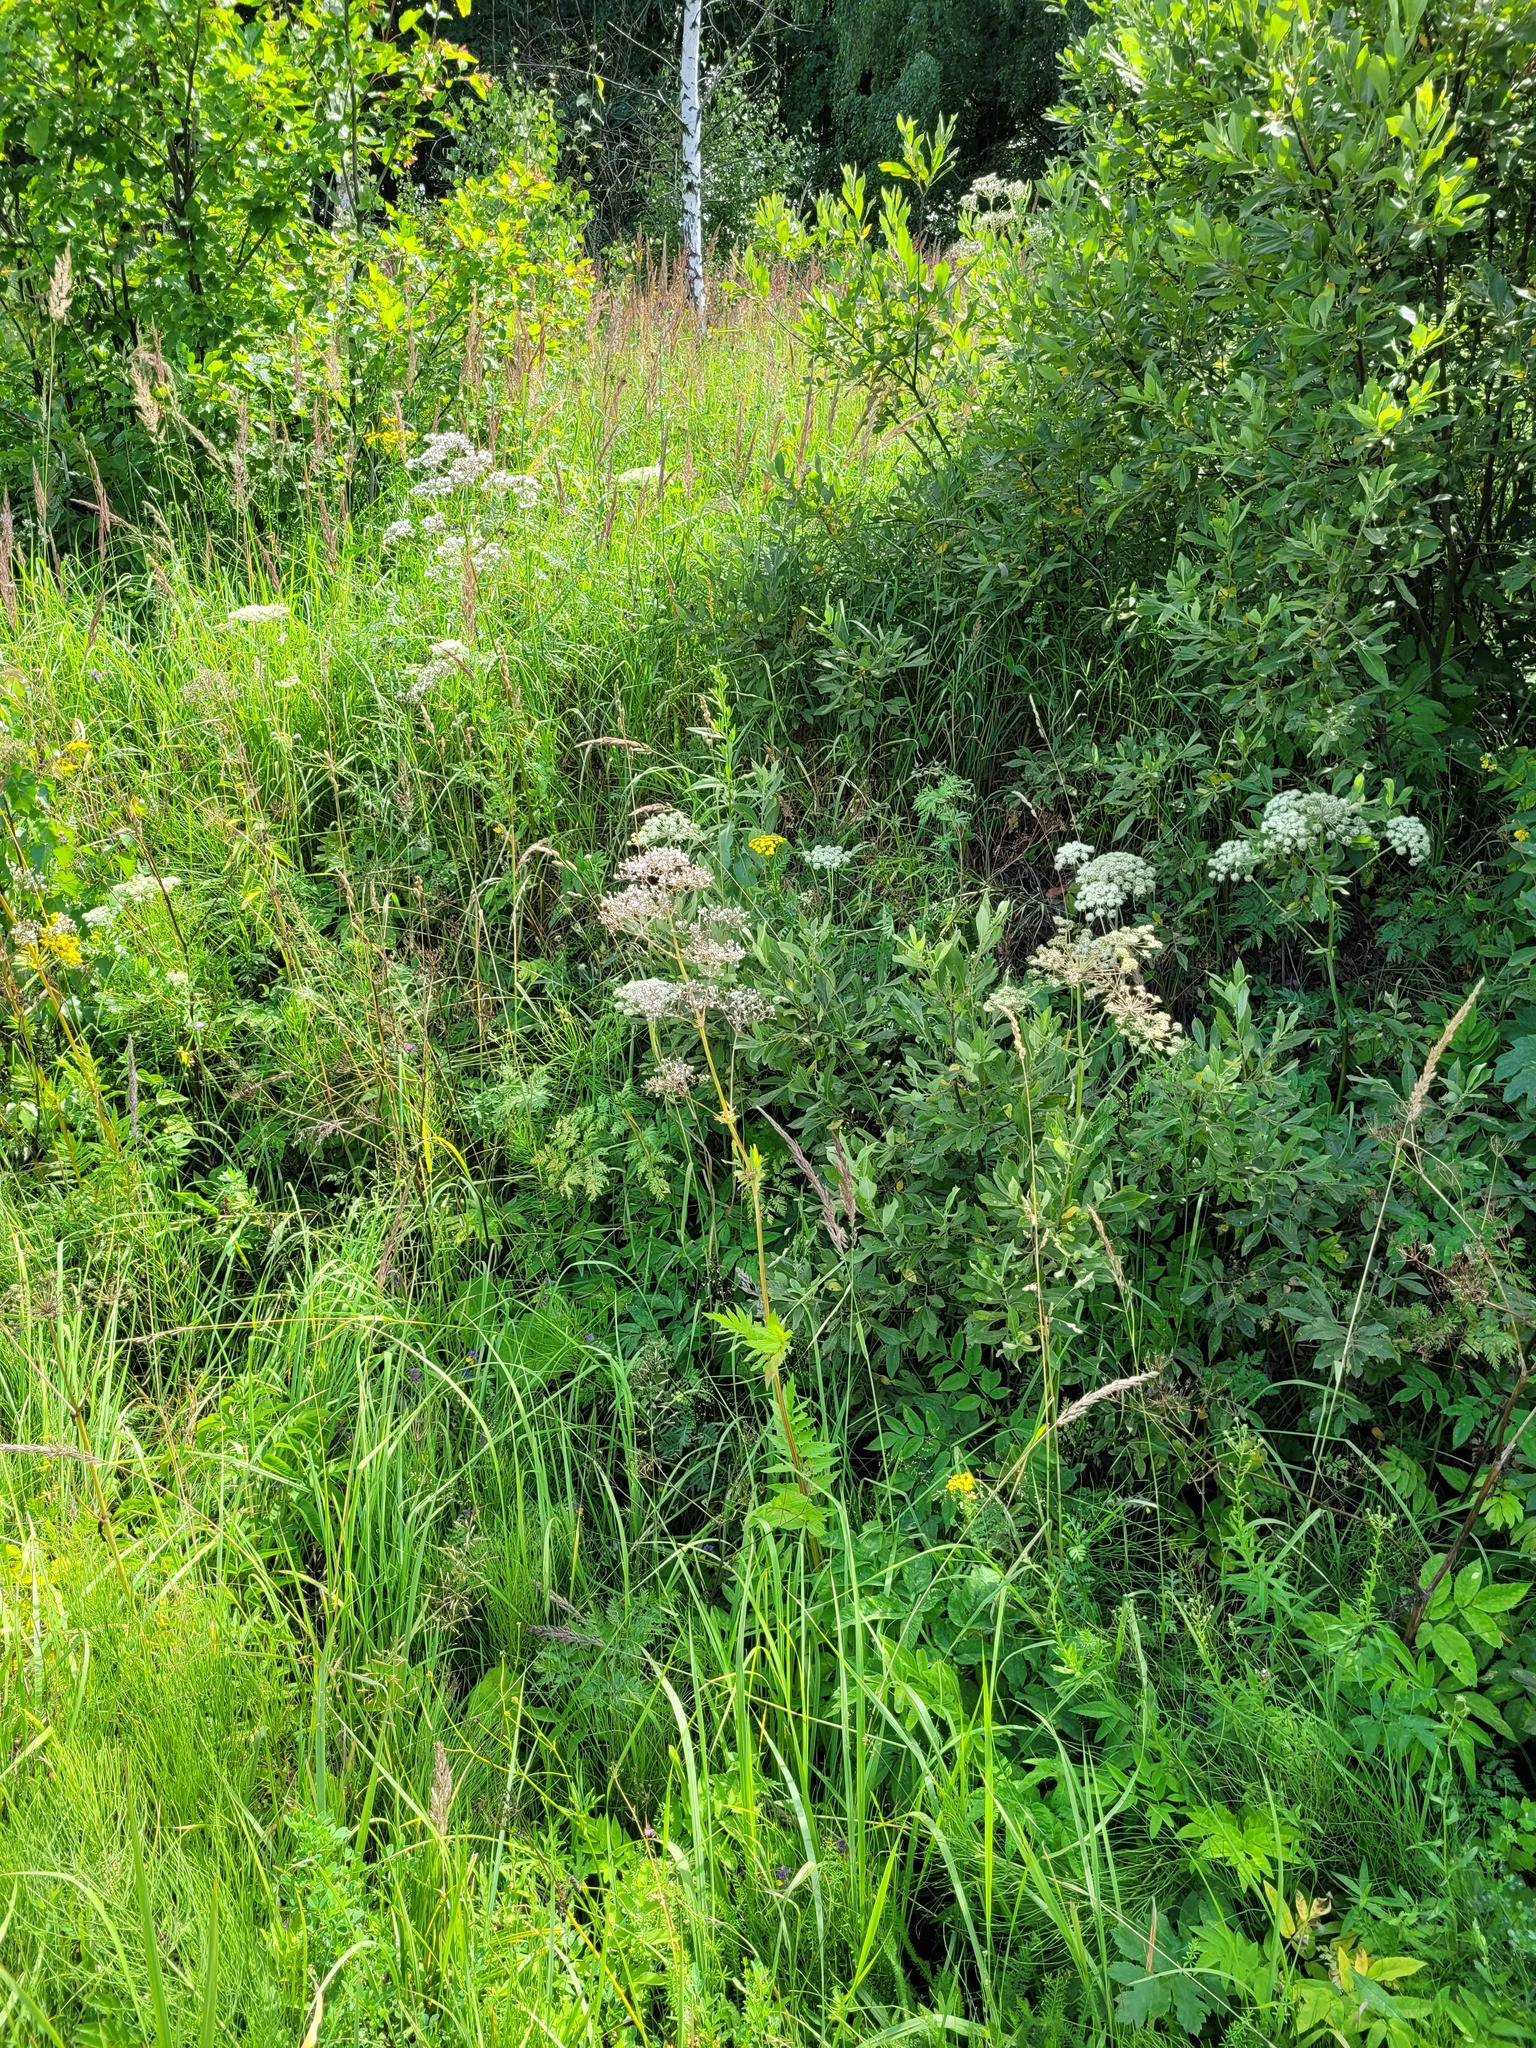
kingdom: Plantae
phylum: Tracheophyta
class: Magnoliopsida
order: Malpighiales
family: Salicaceae
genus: Salix
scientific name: Salix cinerea
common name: Common sallow
